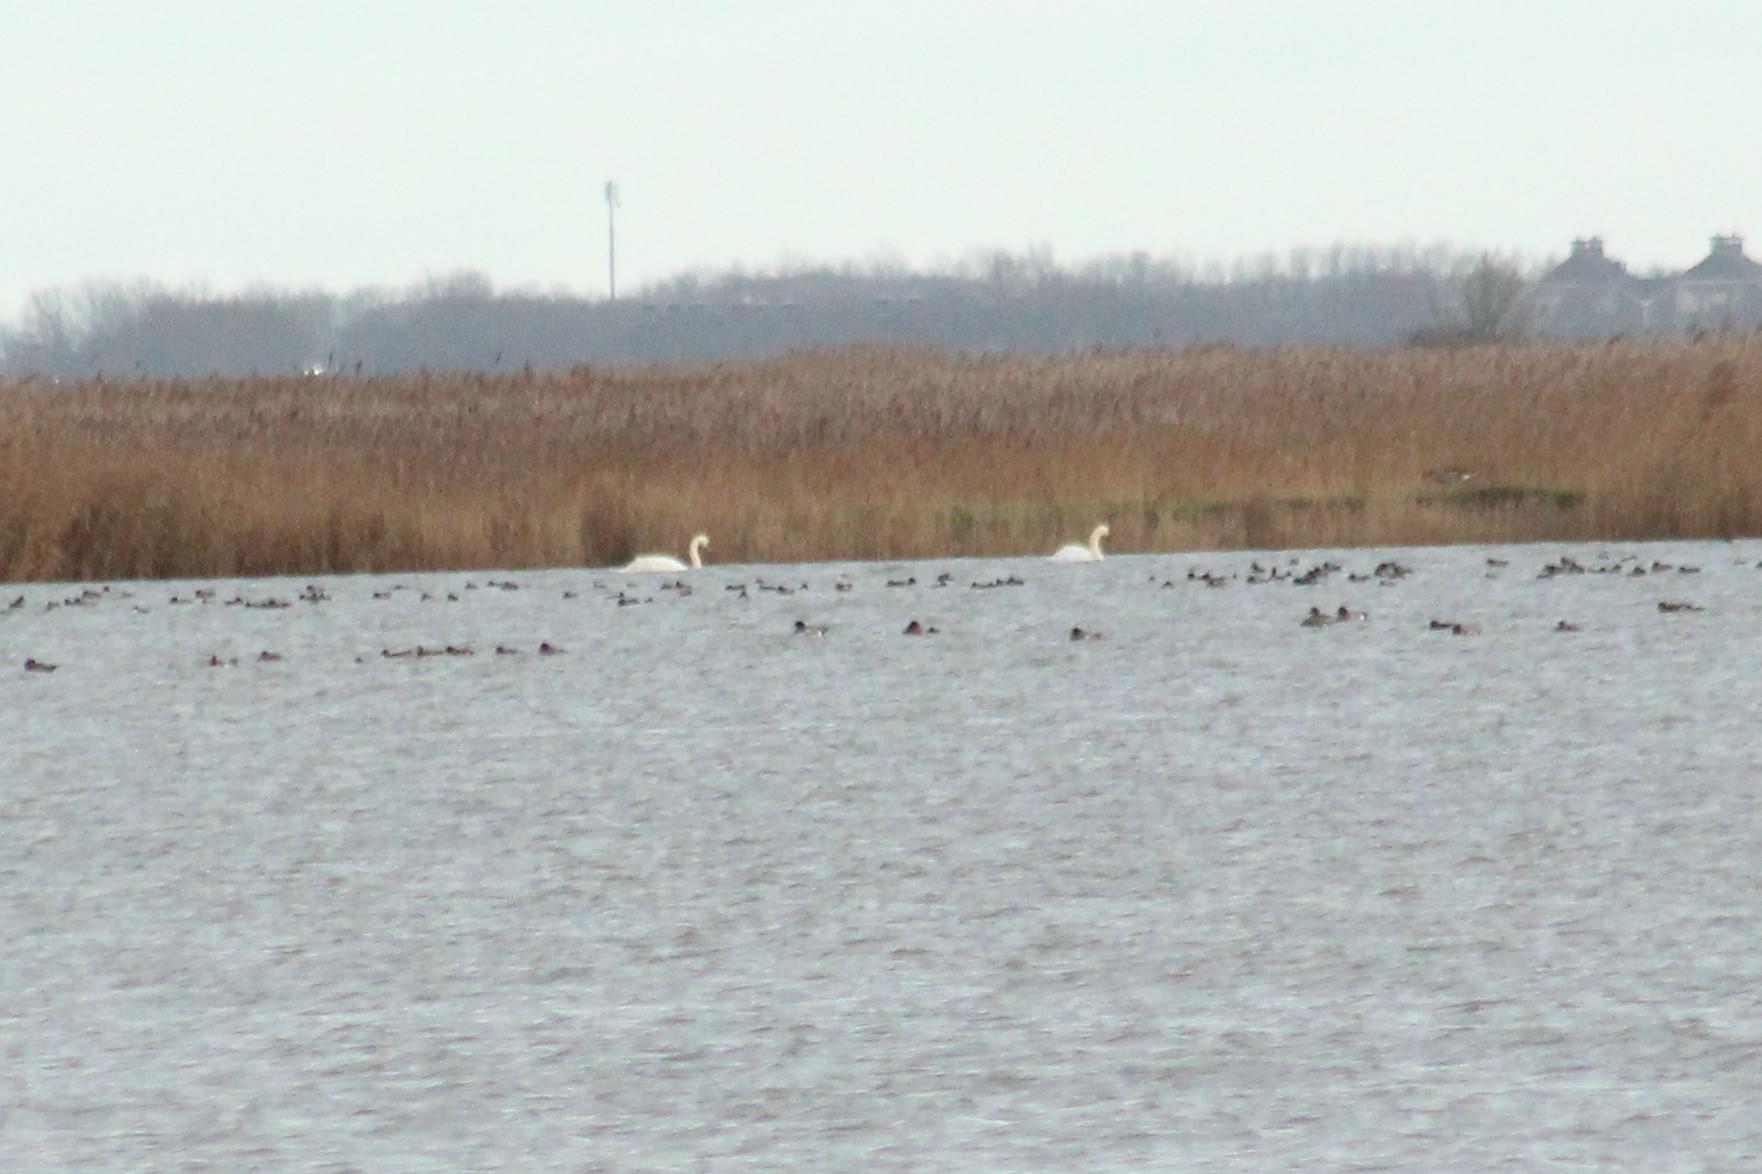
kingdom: Animalia
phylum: Chordata
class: Aves
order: Anseriformes
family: Anatidae
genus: Cygnus
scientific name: Cygnus olor
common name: Mute swan
